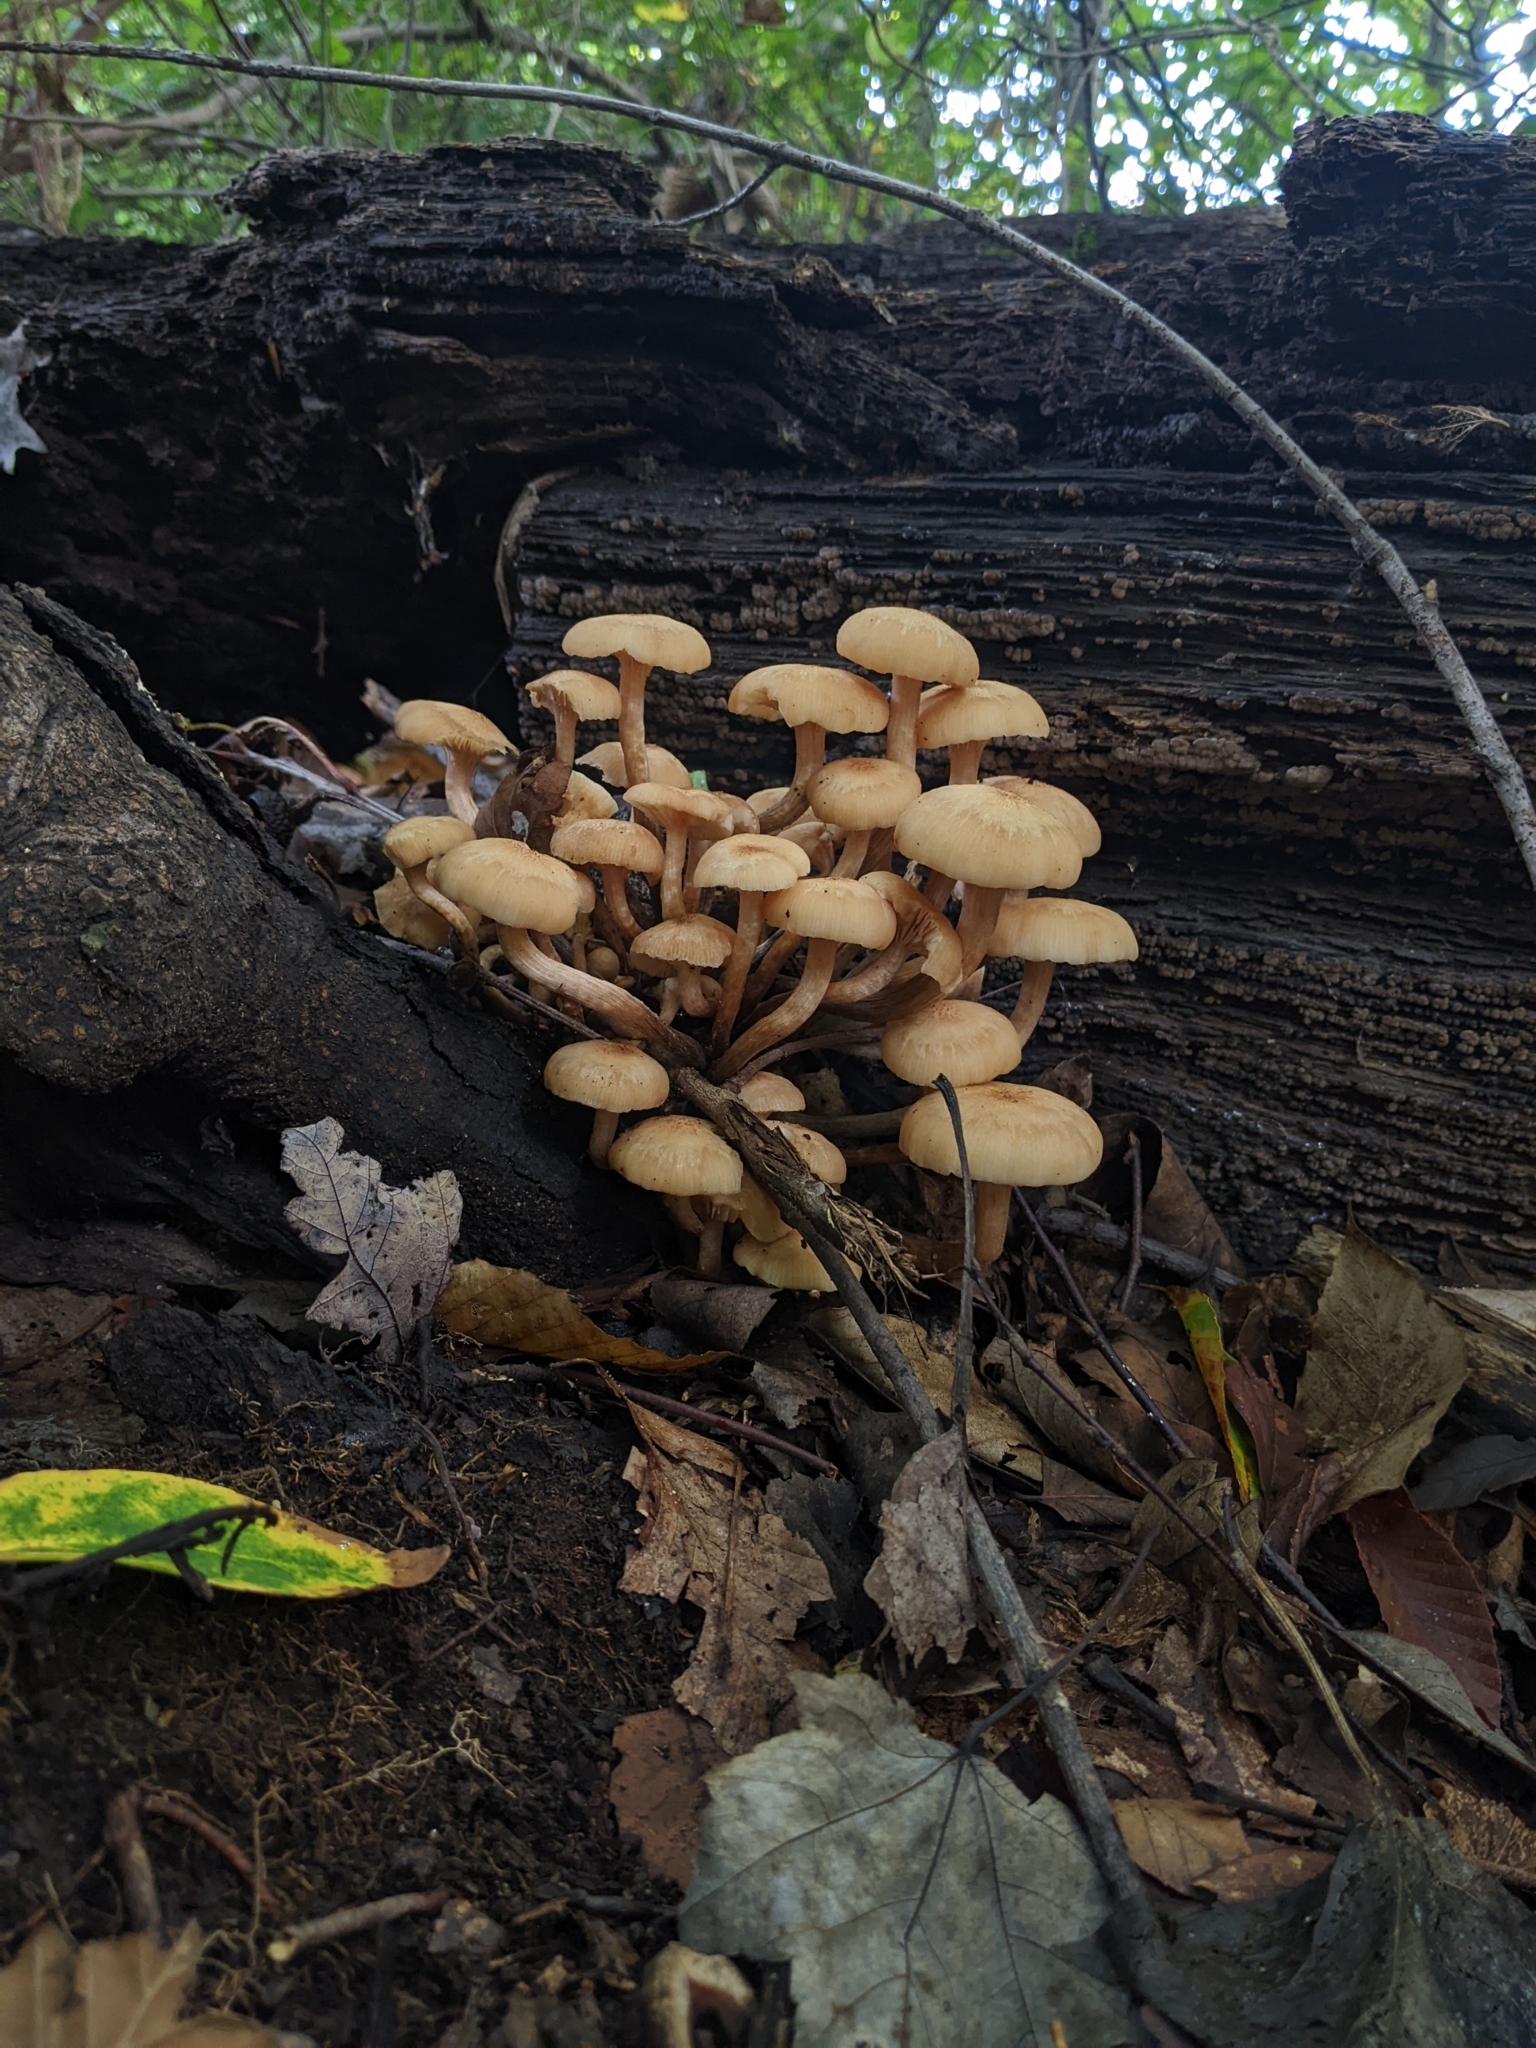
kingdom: Fungi
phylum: Basidiomycota
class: Agaricomycetes
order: Agaricales
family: Physalacriaceae
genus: Desarmillaria
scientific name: Desarmillaria caespitosa
